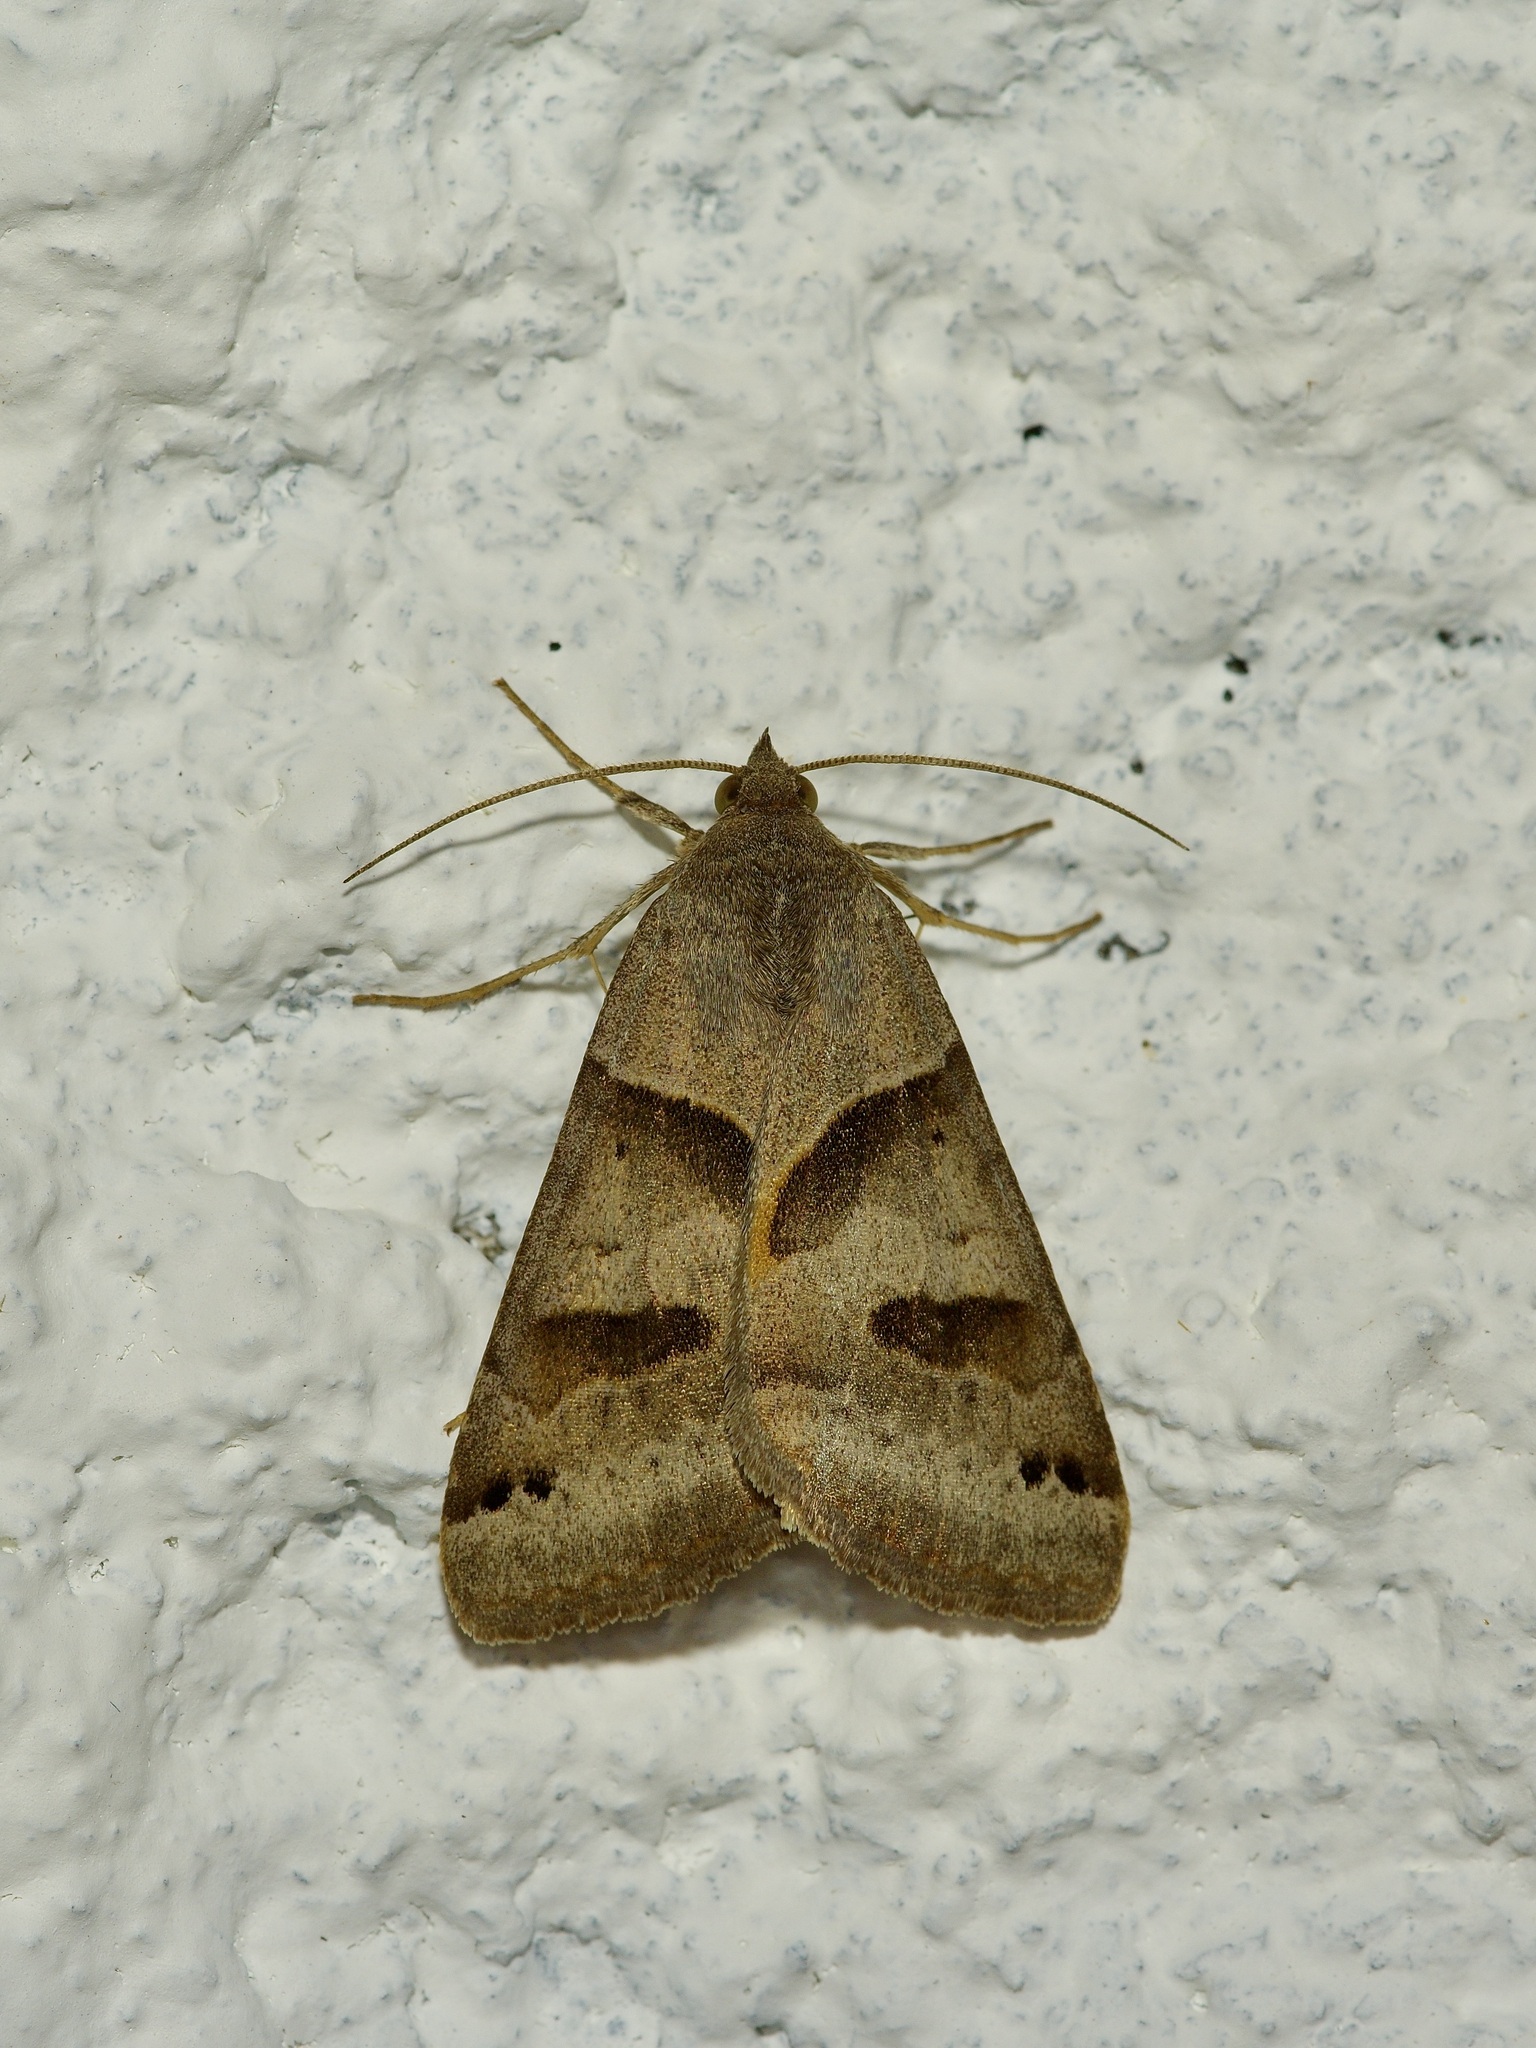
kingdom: Animalia
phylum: Arthropoda
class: Insecta
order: Lepidoptera
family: Erebidae
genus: Caenurgina
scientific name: Caenurgina erechtea
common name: Forage looper moth
